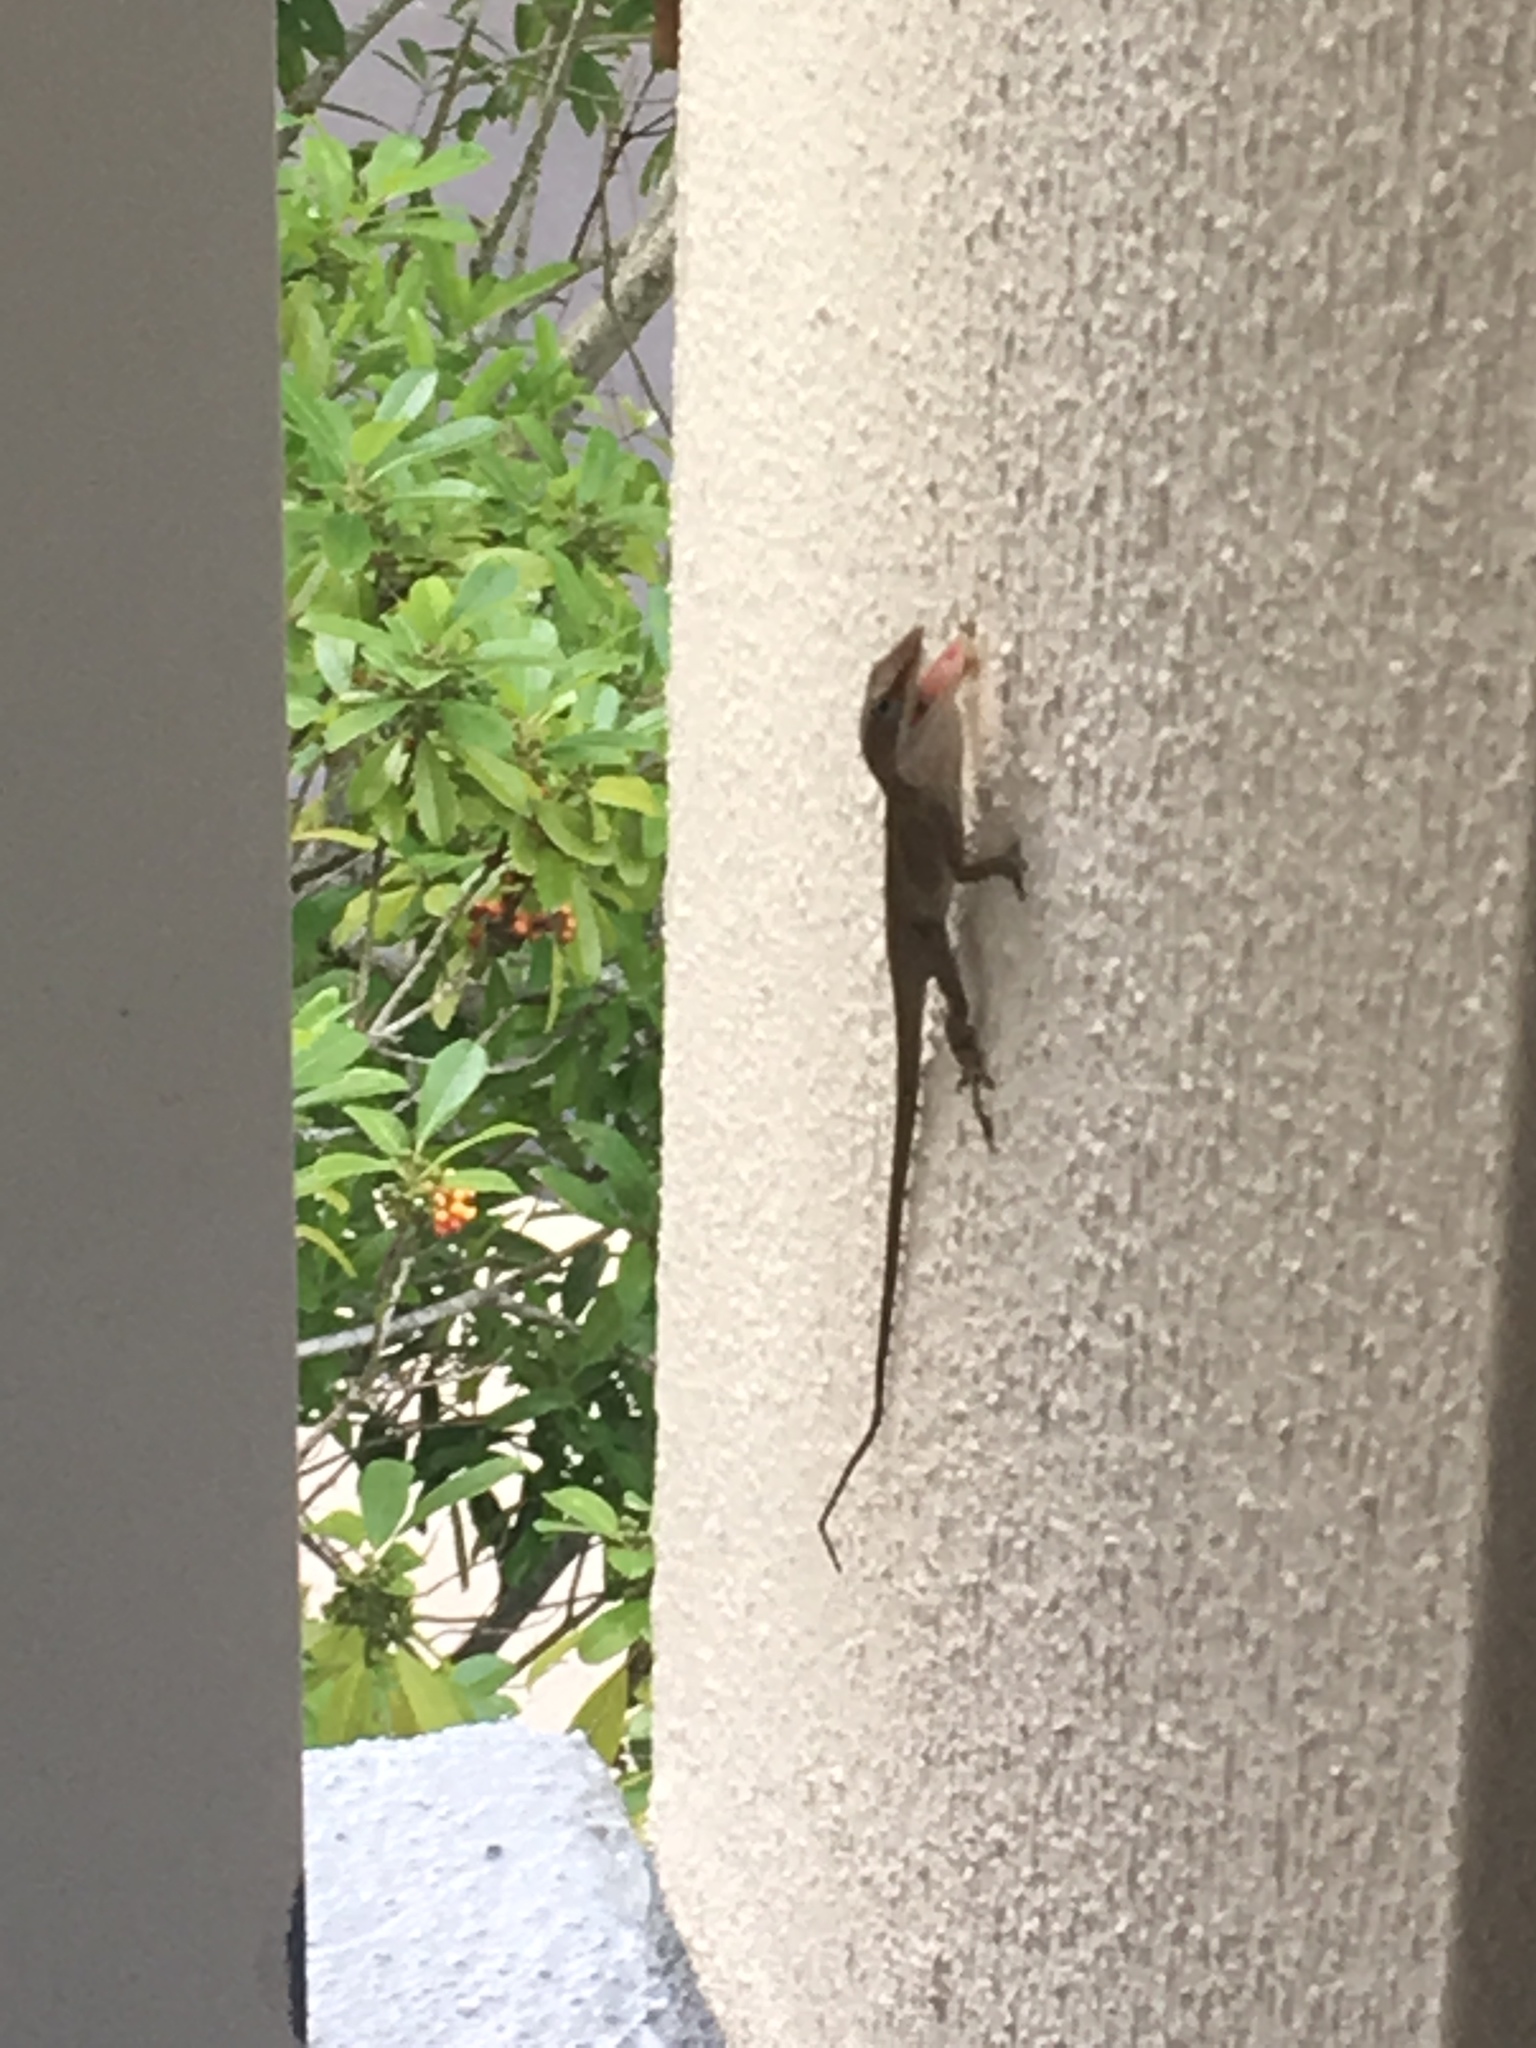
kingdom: Animalia
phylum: Chordata
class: Squamata
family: Dactyloidae
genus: Anolis
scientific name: Anolis carolinensis
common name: Green anole
